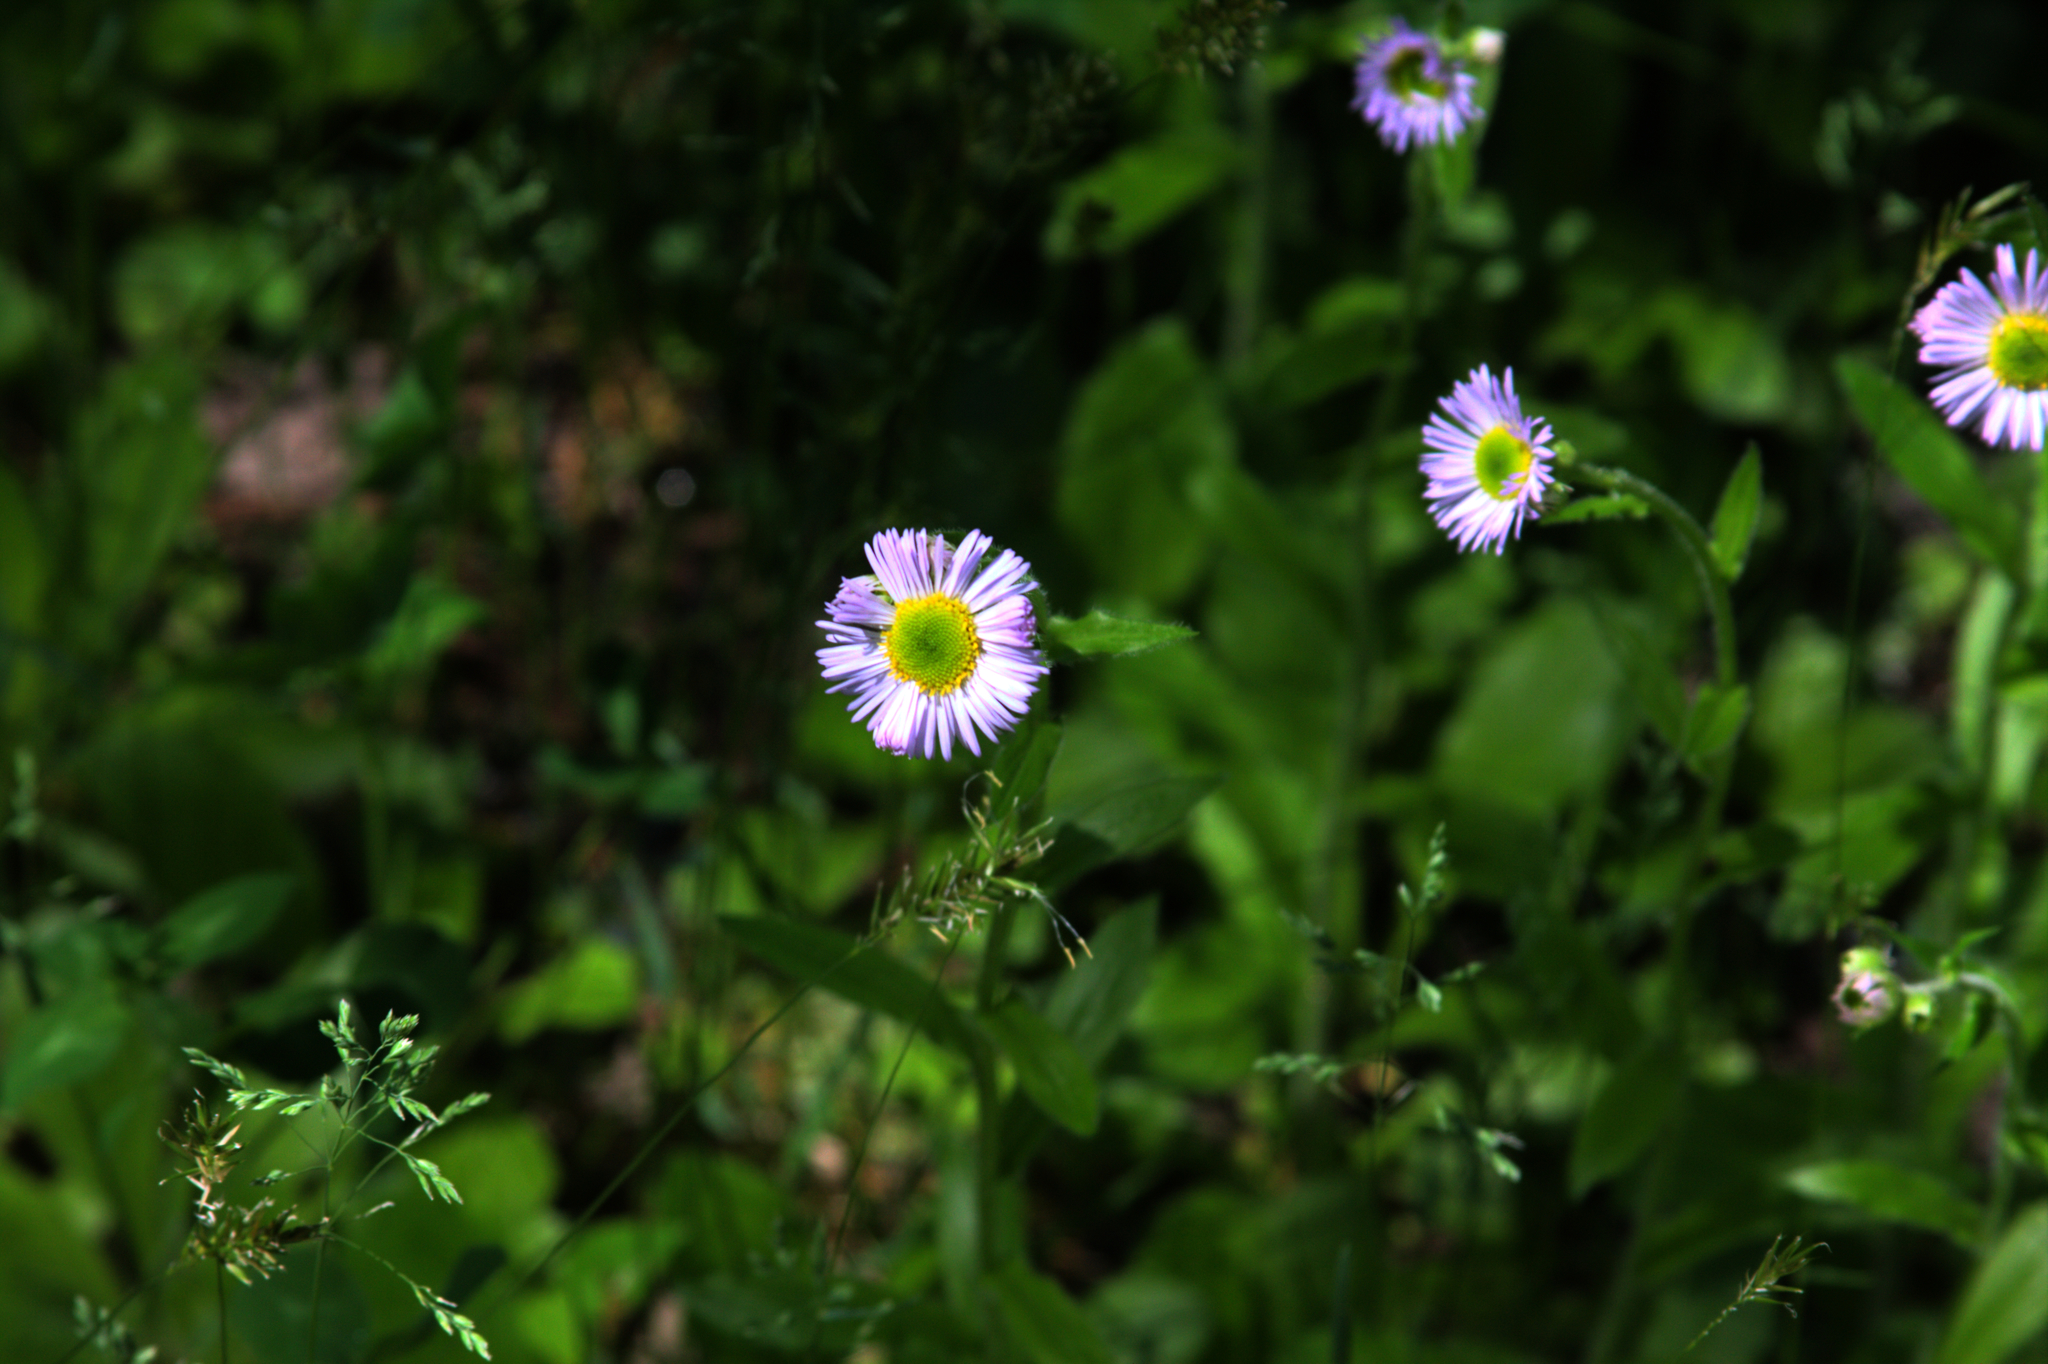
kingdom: Plantae
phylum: Tracheophyta
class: Magnoliopsida
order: Asterales
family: Asteraceae
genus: Erigeron
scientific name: Erigeron pulchellus
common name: Hairy fleabane
